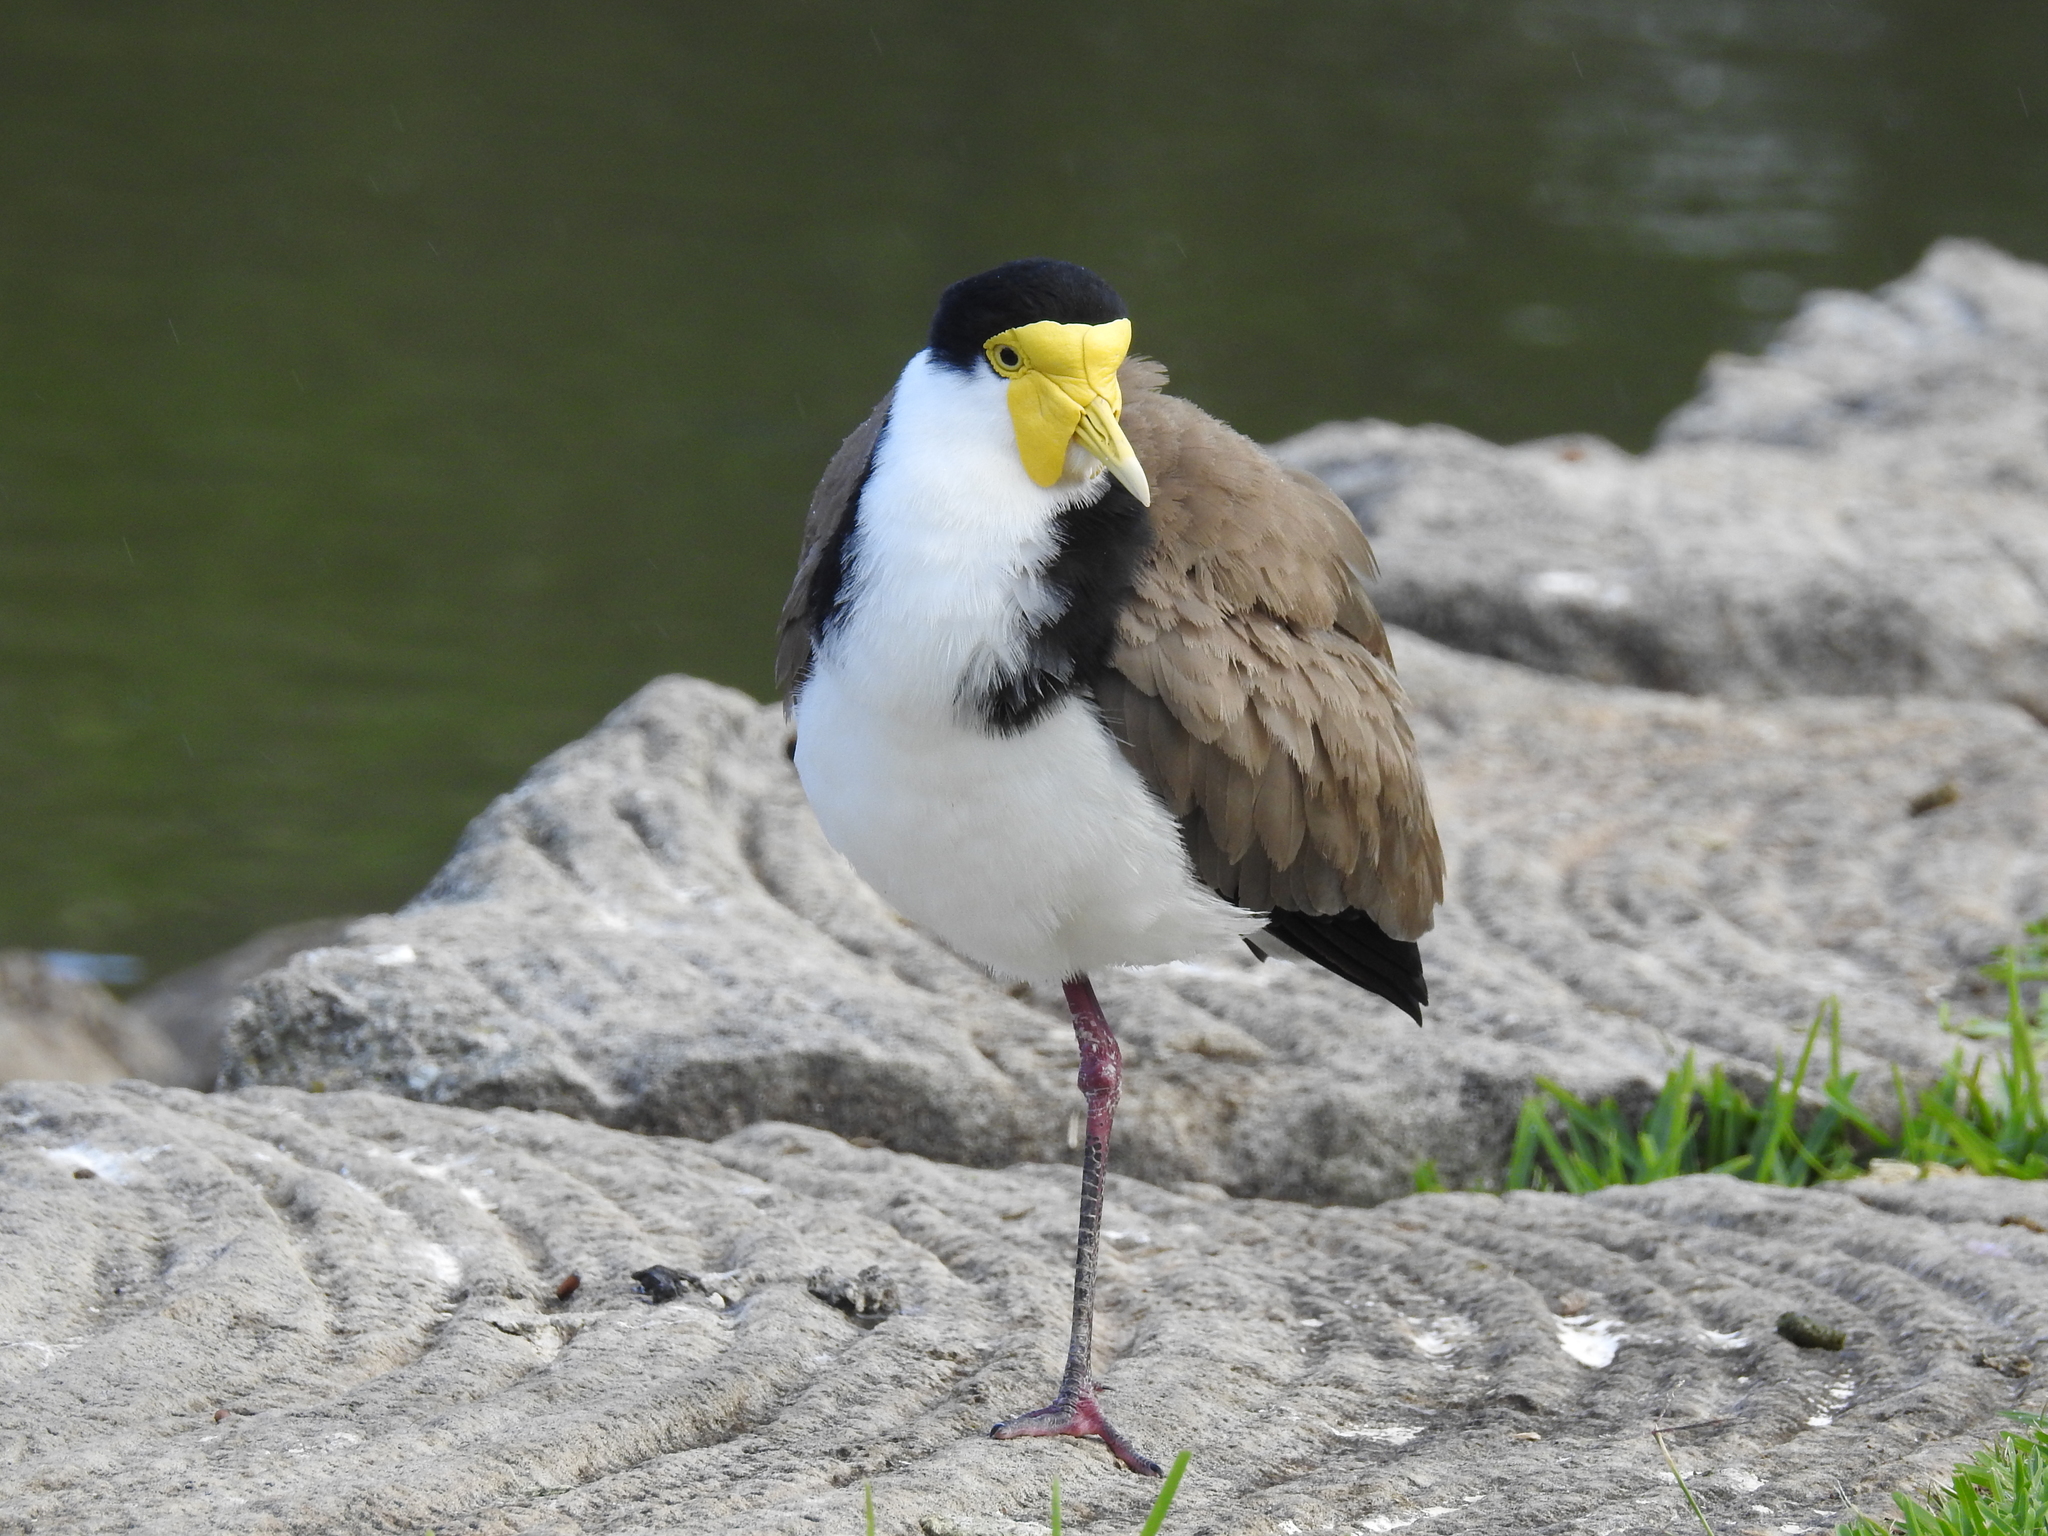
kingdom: Animalia
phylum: Chordata
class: Aves
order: Charadriiformes
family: Charadriidae
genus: Vanellus
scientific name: Vanellus miles
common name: Masked lapwing
